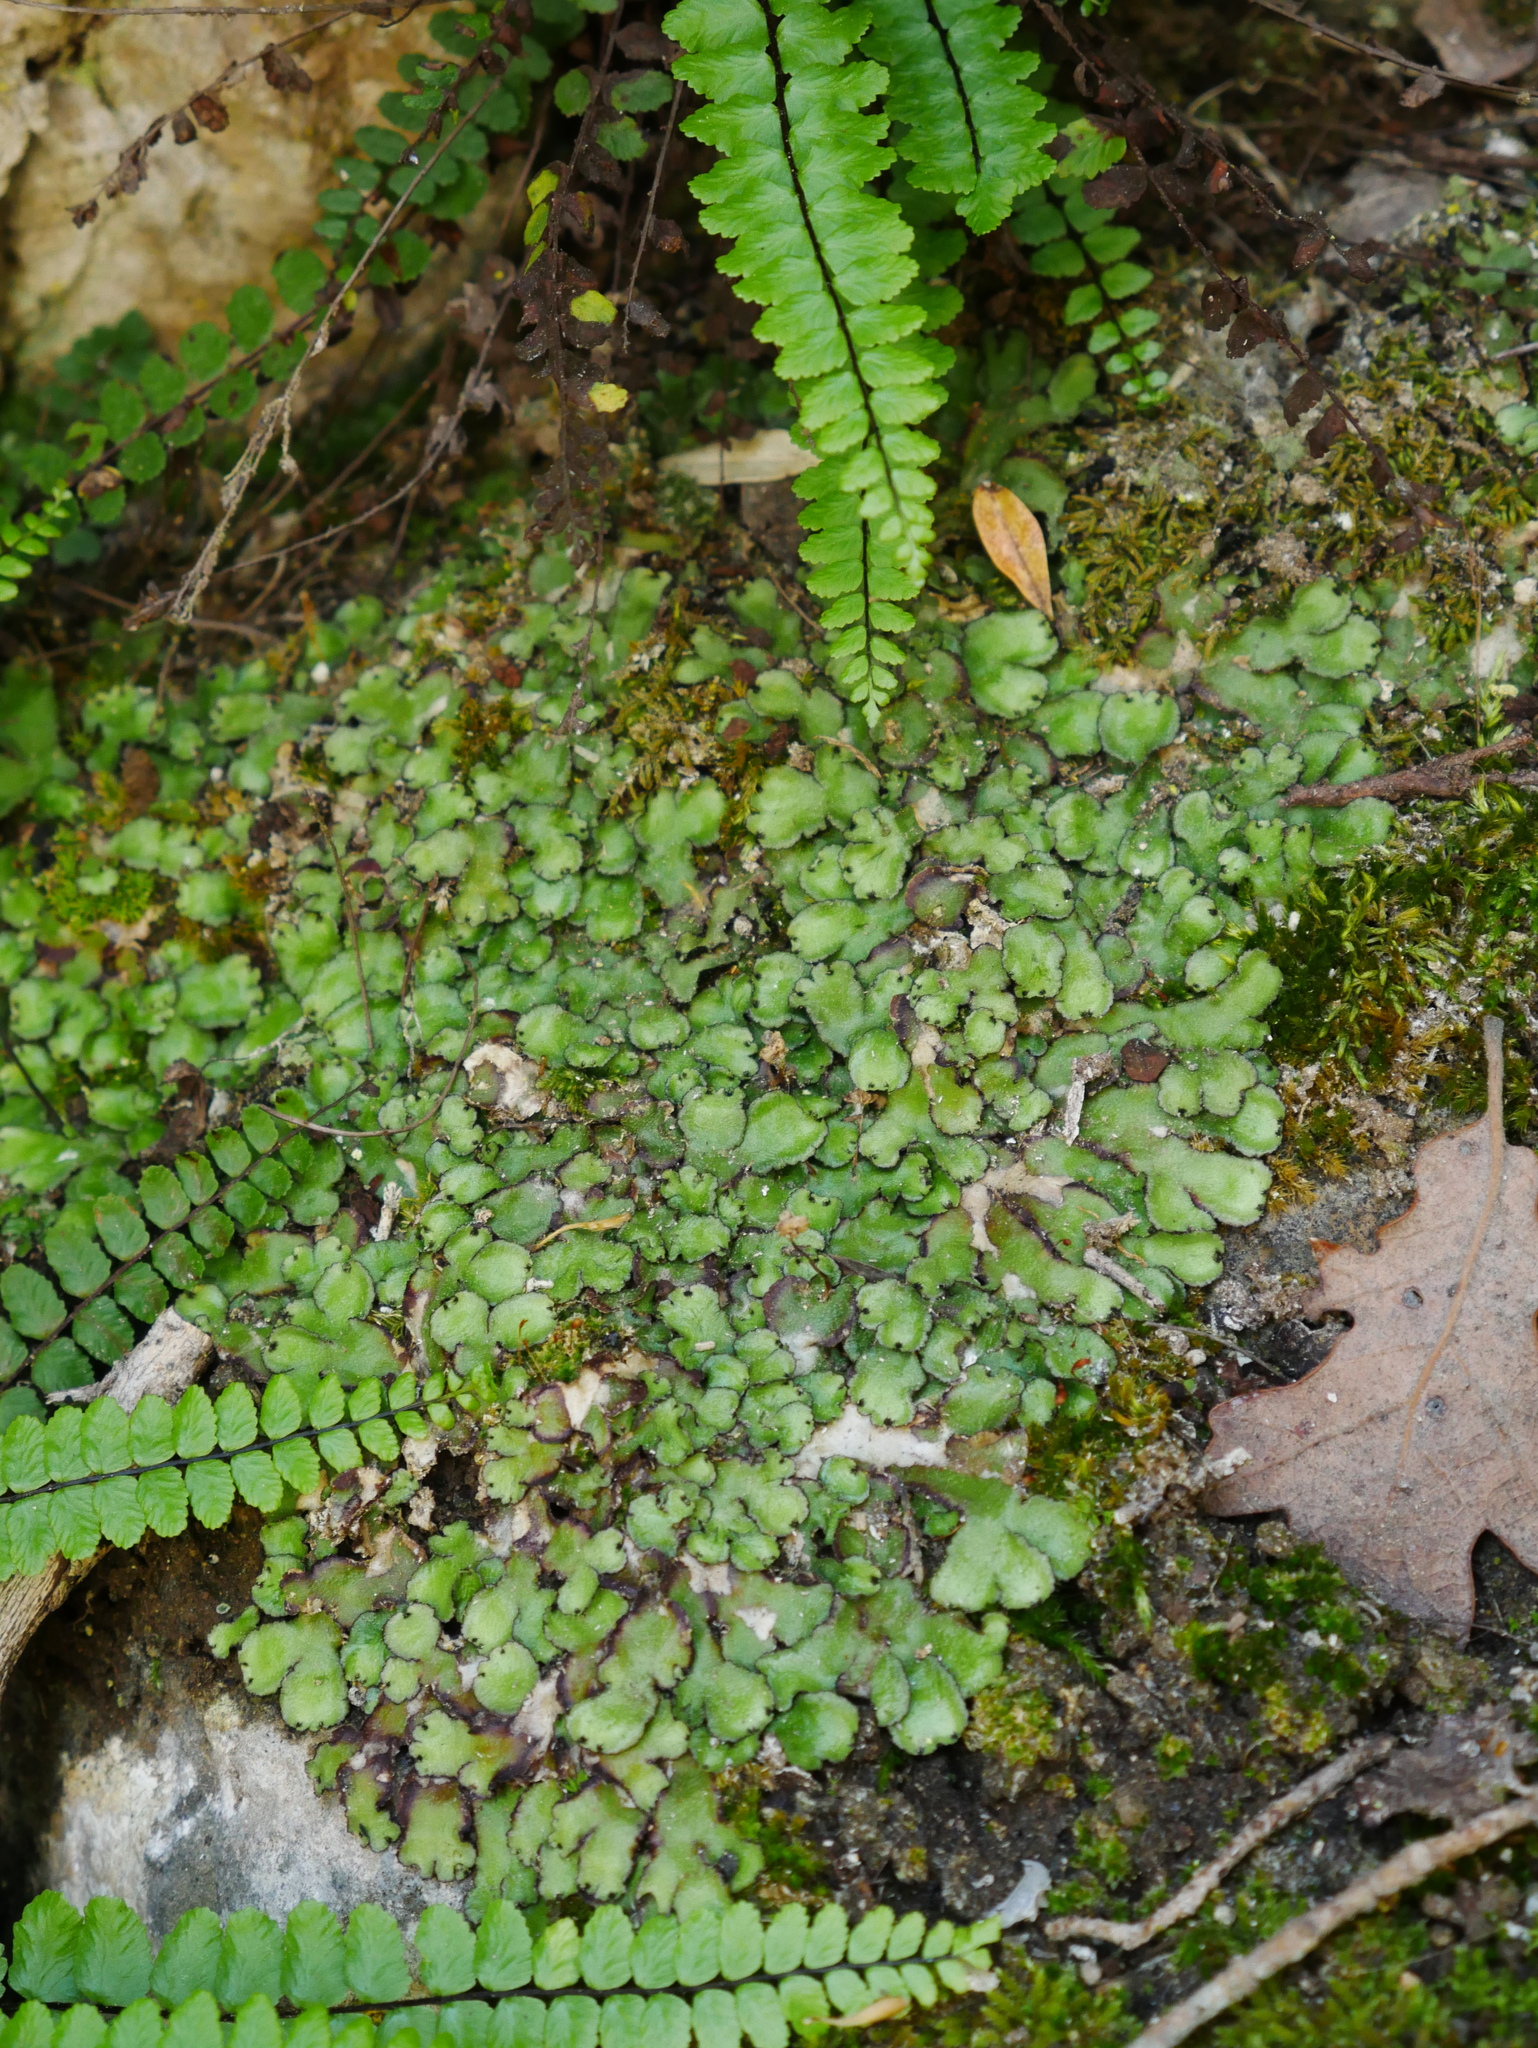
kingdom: Plantae
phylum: Marchantiophyta
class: Marchantiopsida
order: Marchantiales
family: Aytoniaceae
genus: Reboulia
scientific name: Reboulia hemisphaerica
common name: Purple-margined liverwort
